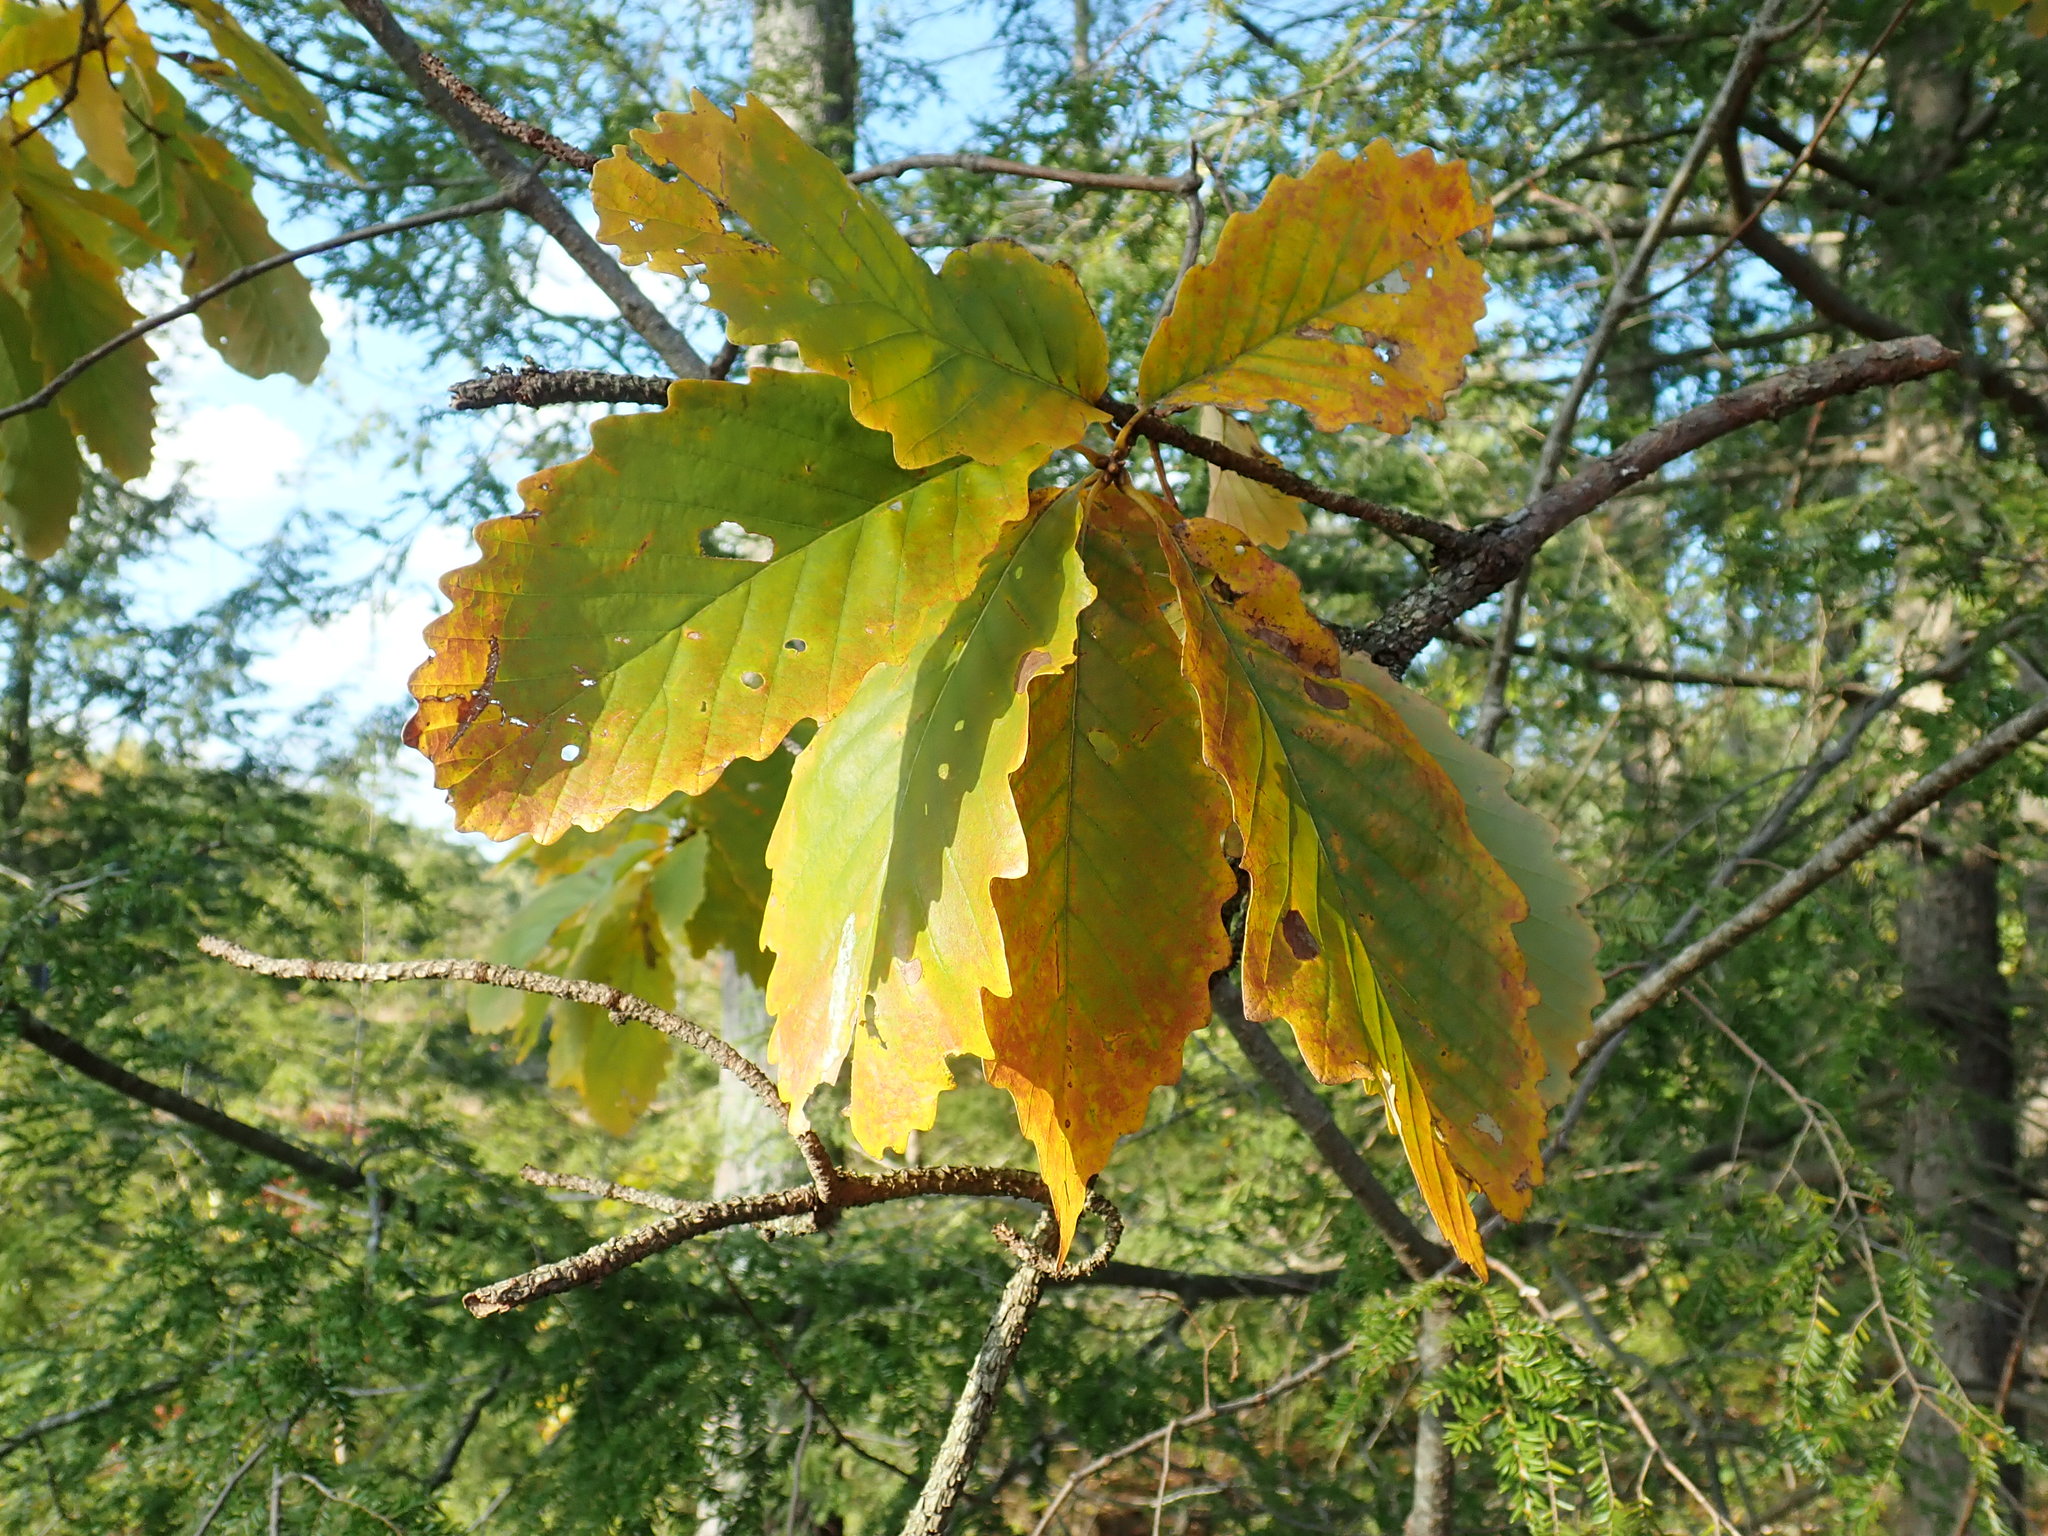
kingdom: Plantae
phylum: Tracheophyta
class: Magnoliopsida
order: Fagales
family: Fagaceae
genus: Quercus
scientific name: Quercus montana
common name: Chestnut oak
